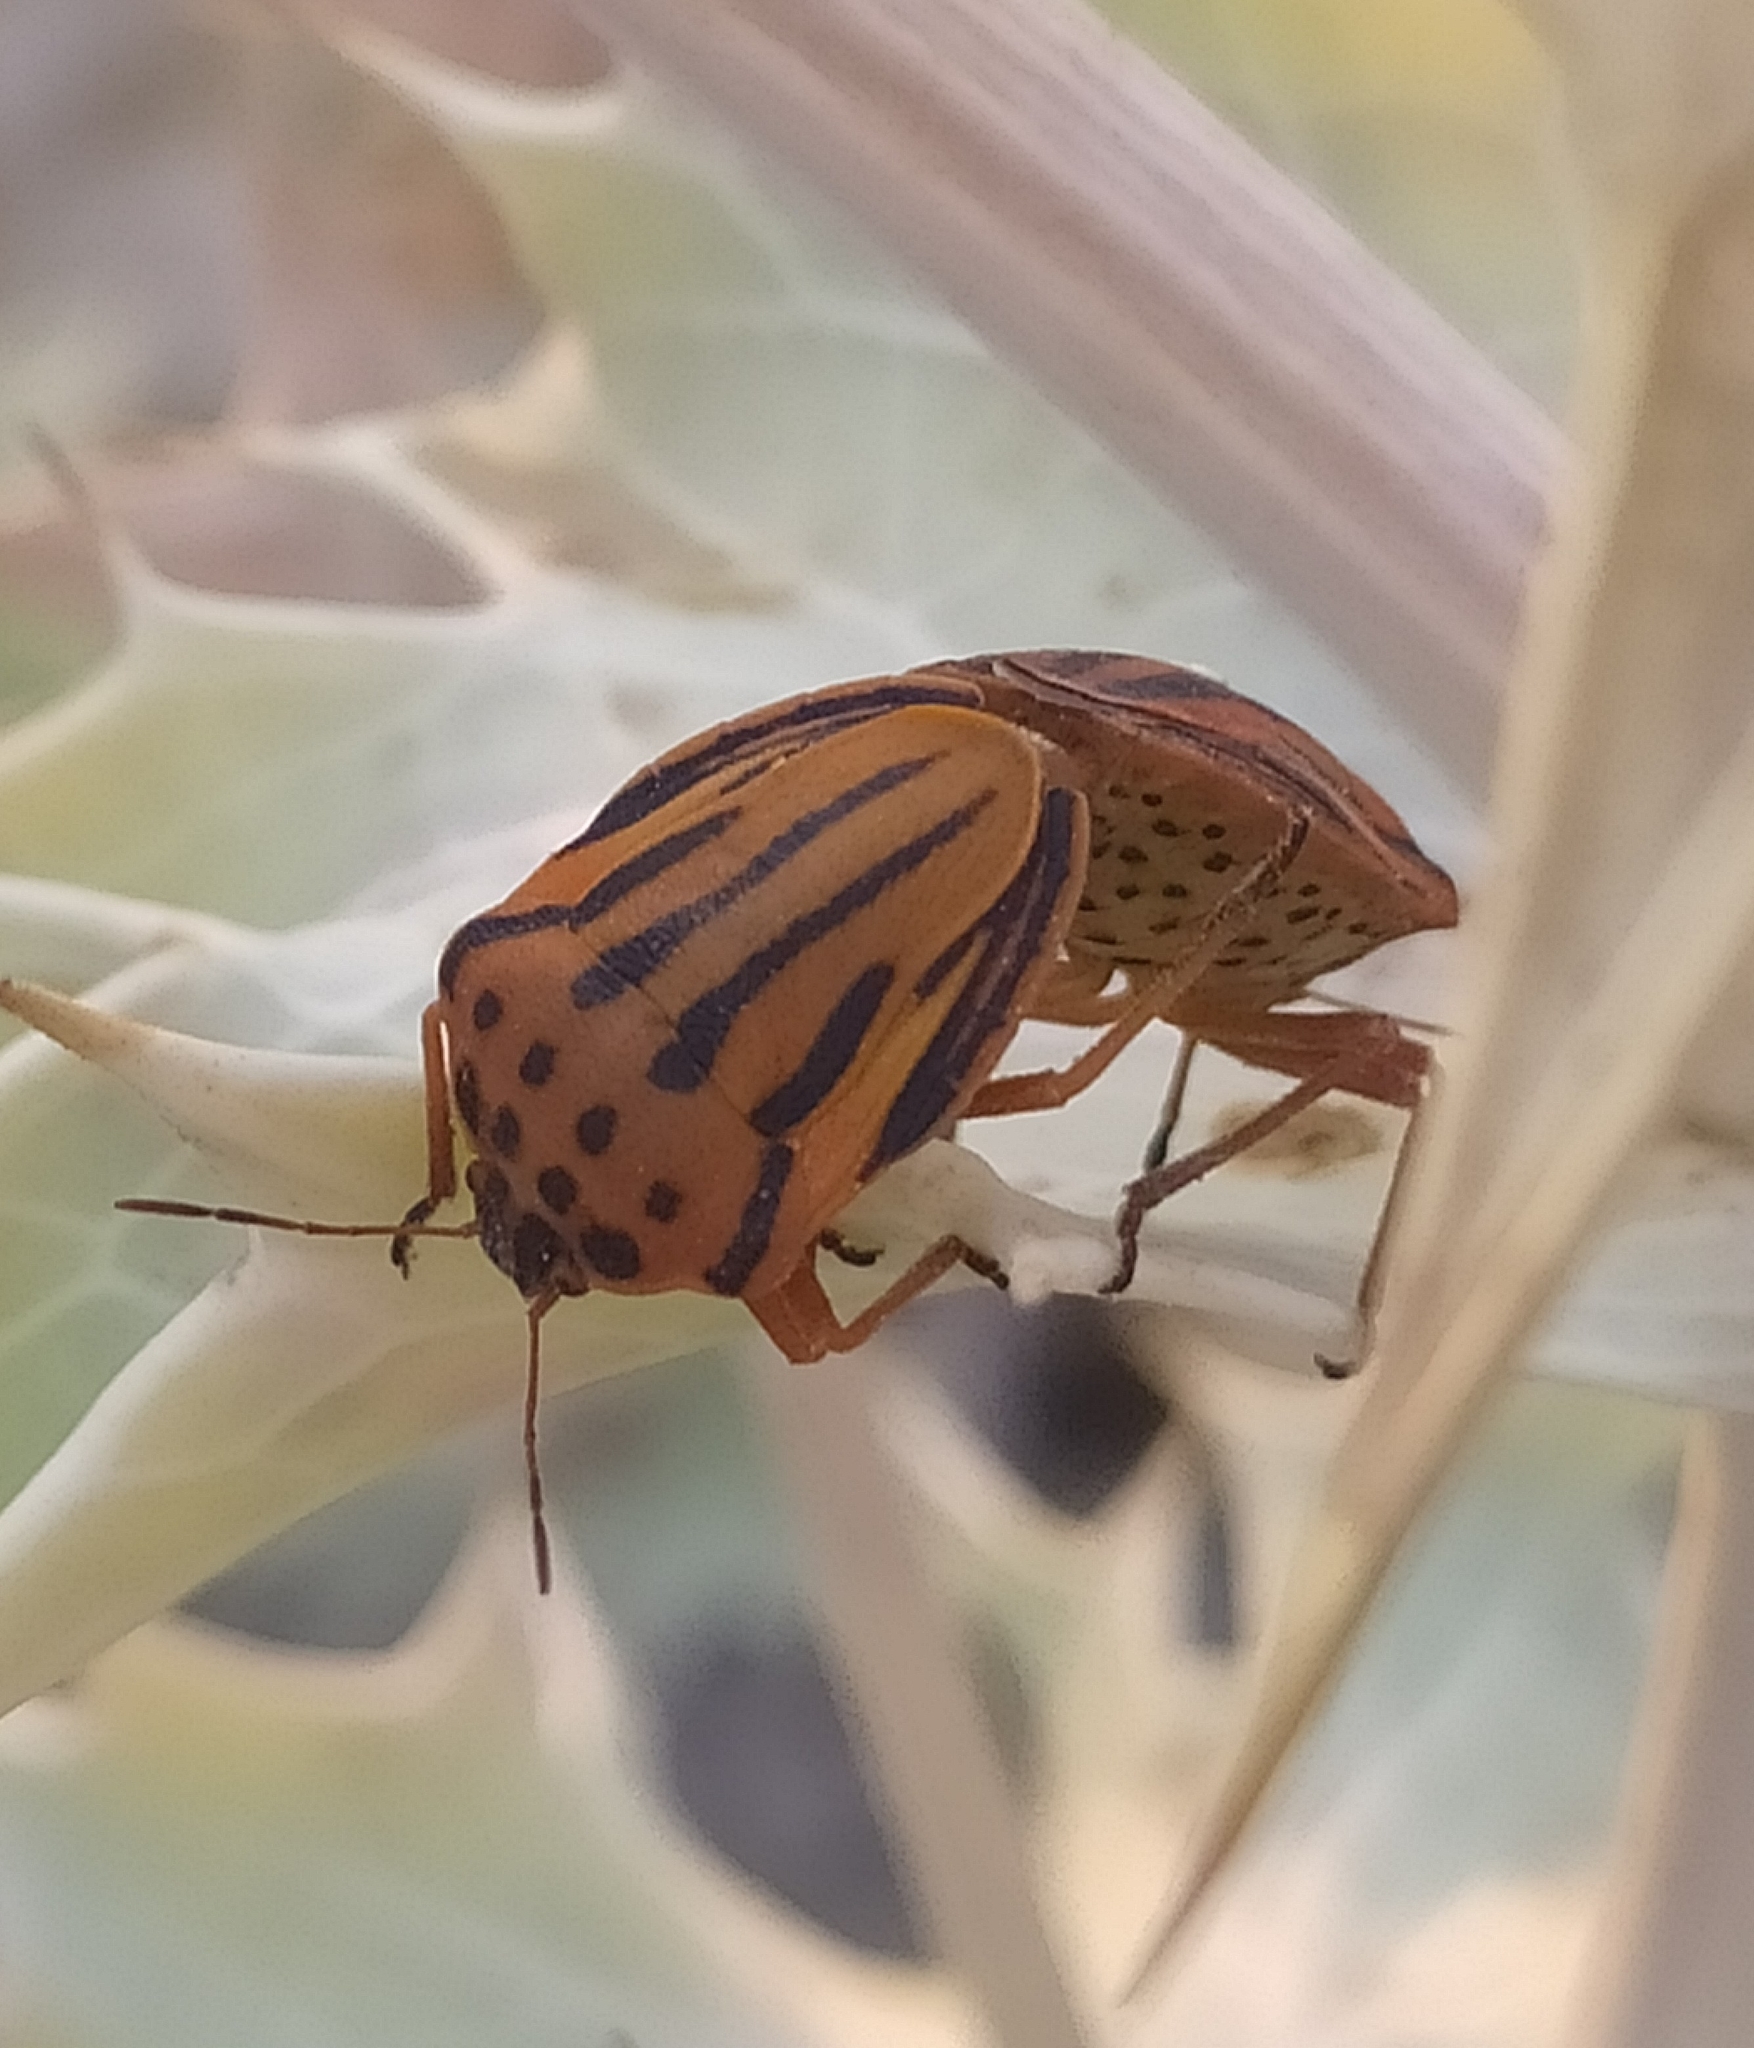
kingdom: Animalia
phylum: Arthropoda
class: Insecta
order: Hemiptera
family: Pentatomidae
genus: Graphosoma
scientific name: Graphosoma semipunctatum
